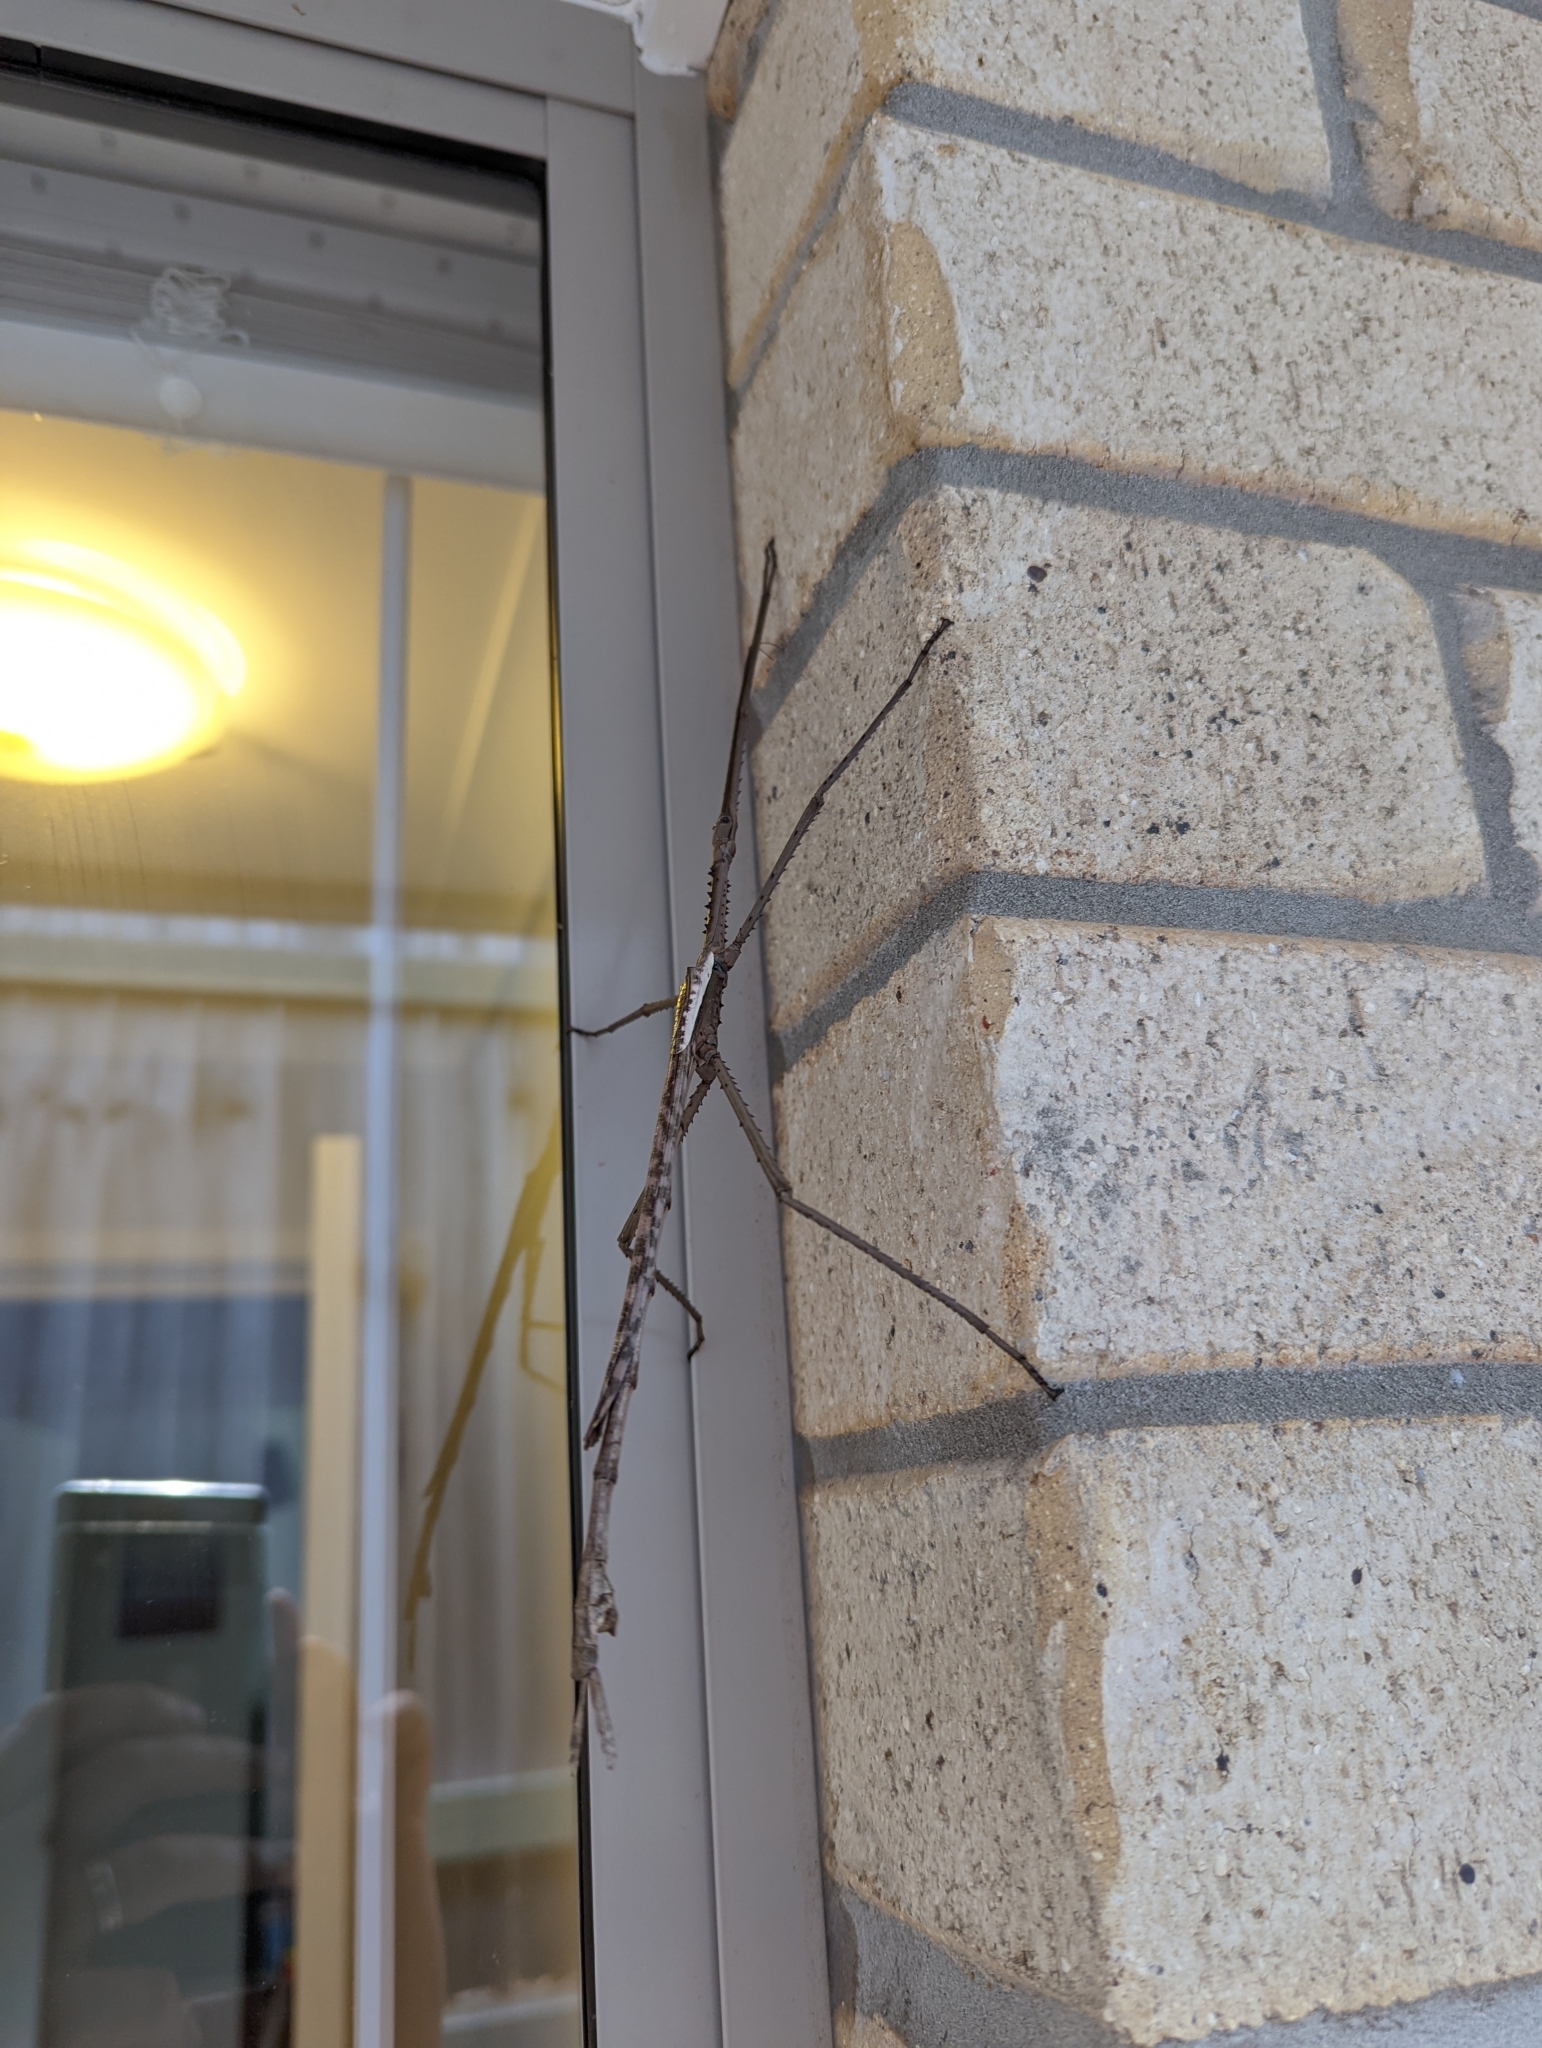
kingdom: Animalia
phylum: Arthropoda
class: Insecta
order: Phasmida
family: Phasmatidae
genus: Acrophylla
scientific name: Acrophylla titan
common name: Titan stick insect
